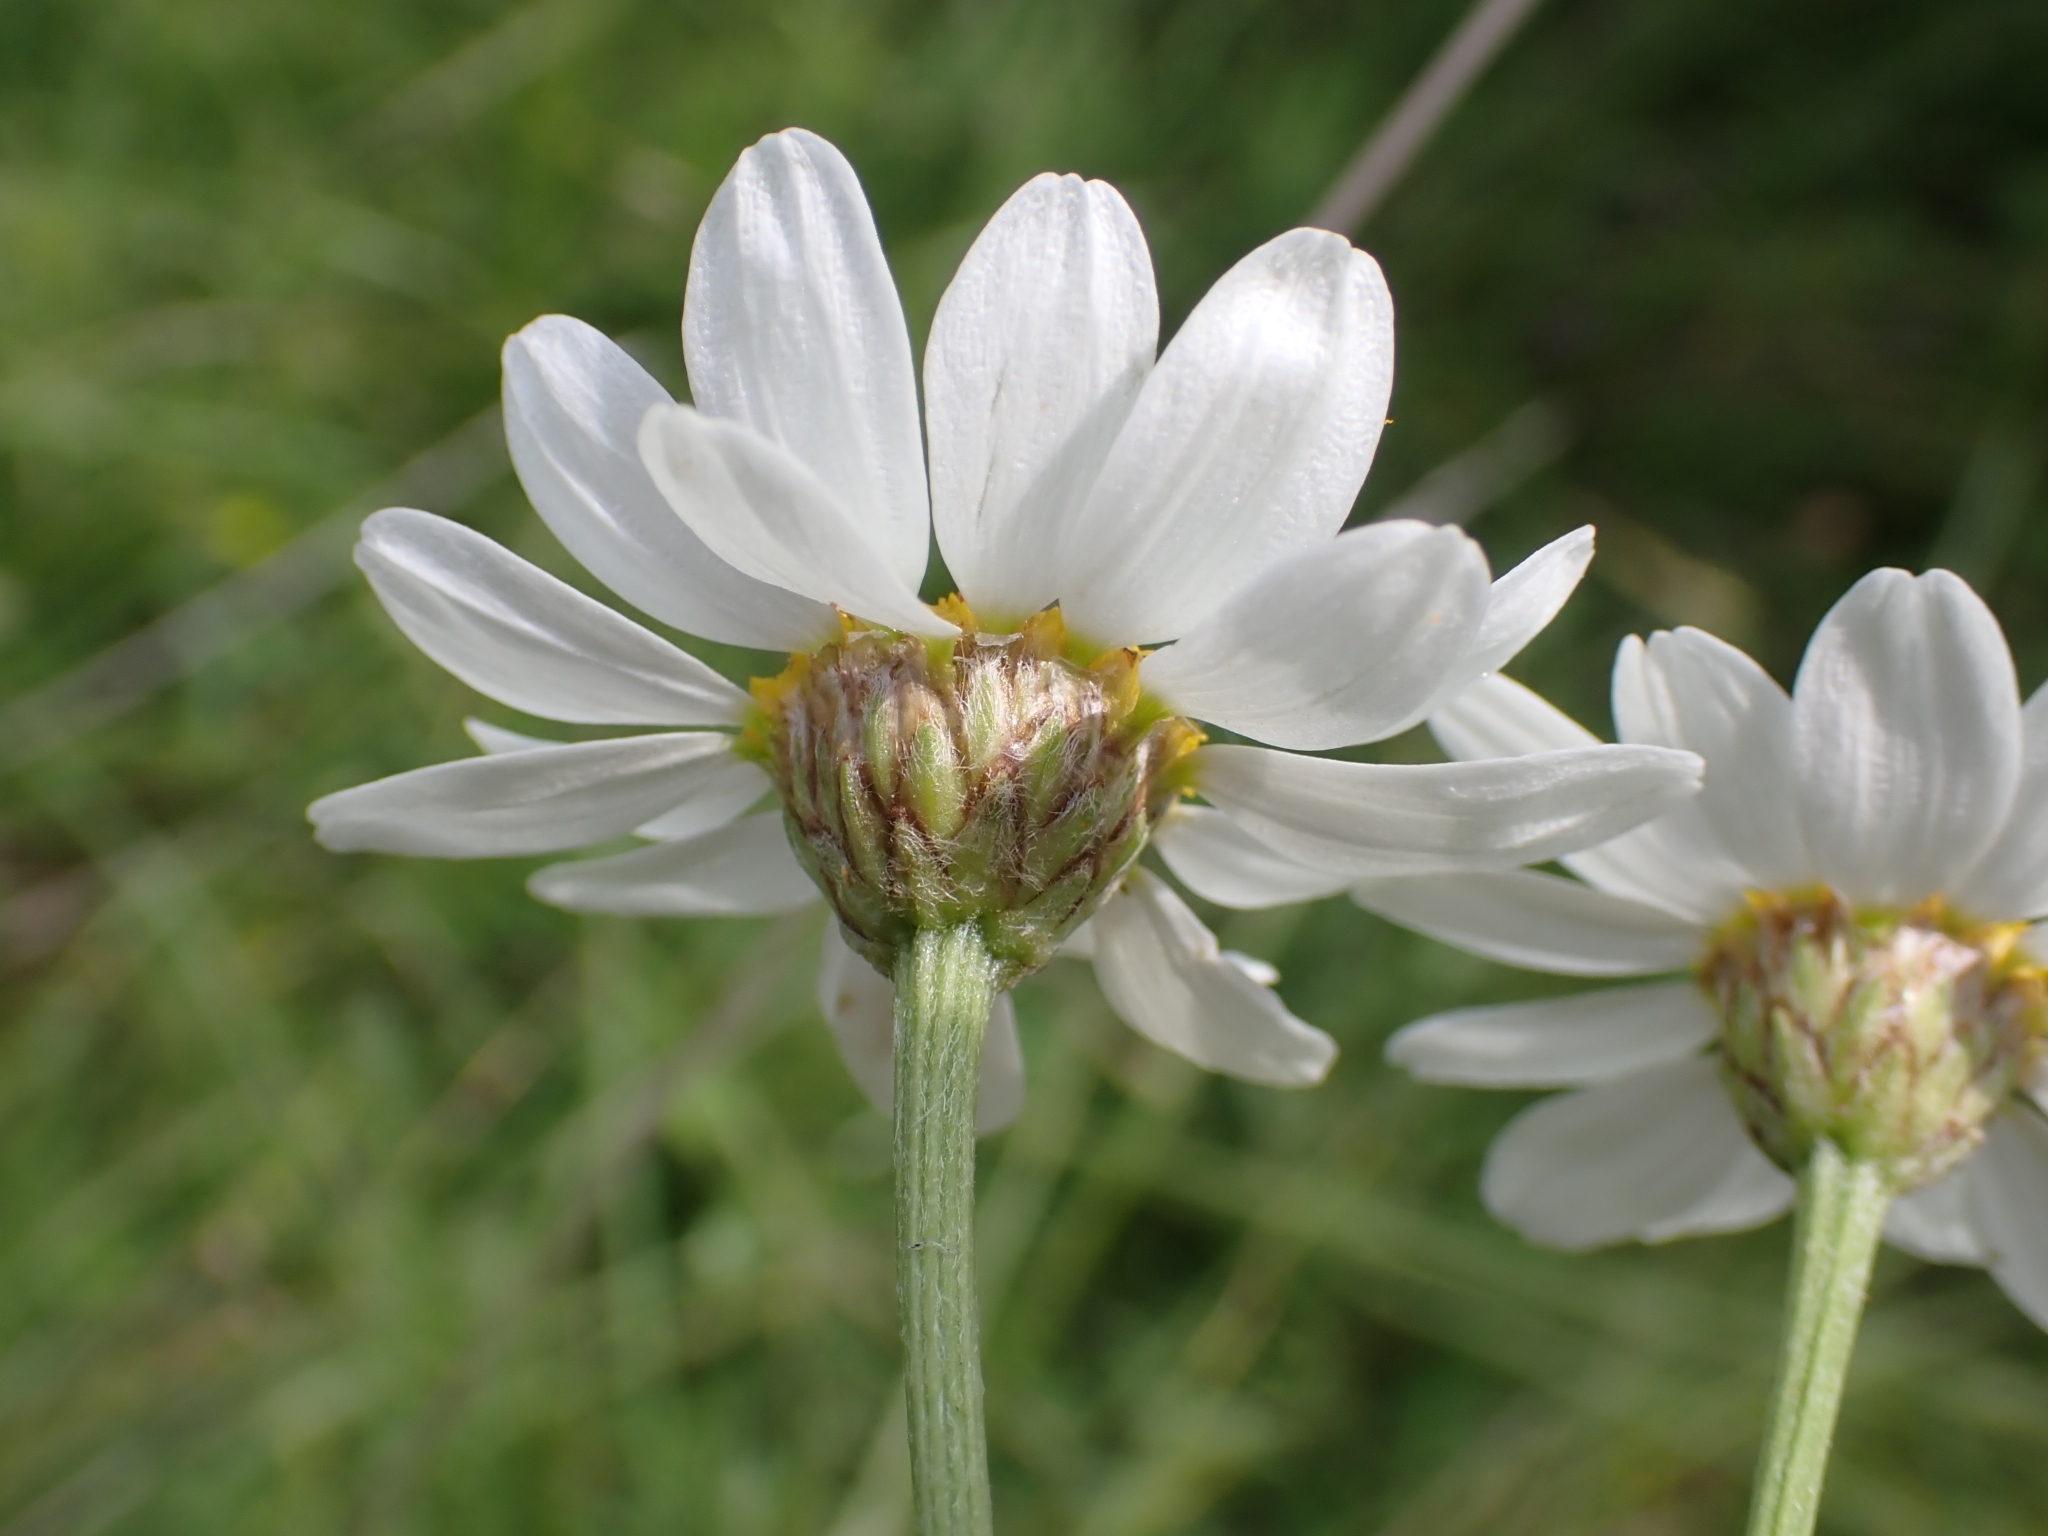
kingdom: Plantae
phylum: Tracheophyta
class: Magnoliopsida
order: Asterales
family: Asteraceae
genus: Tanacetum
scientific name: Tanacetum corymbosum
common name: Scentless feverfew
